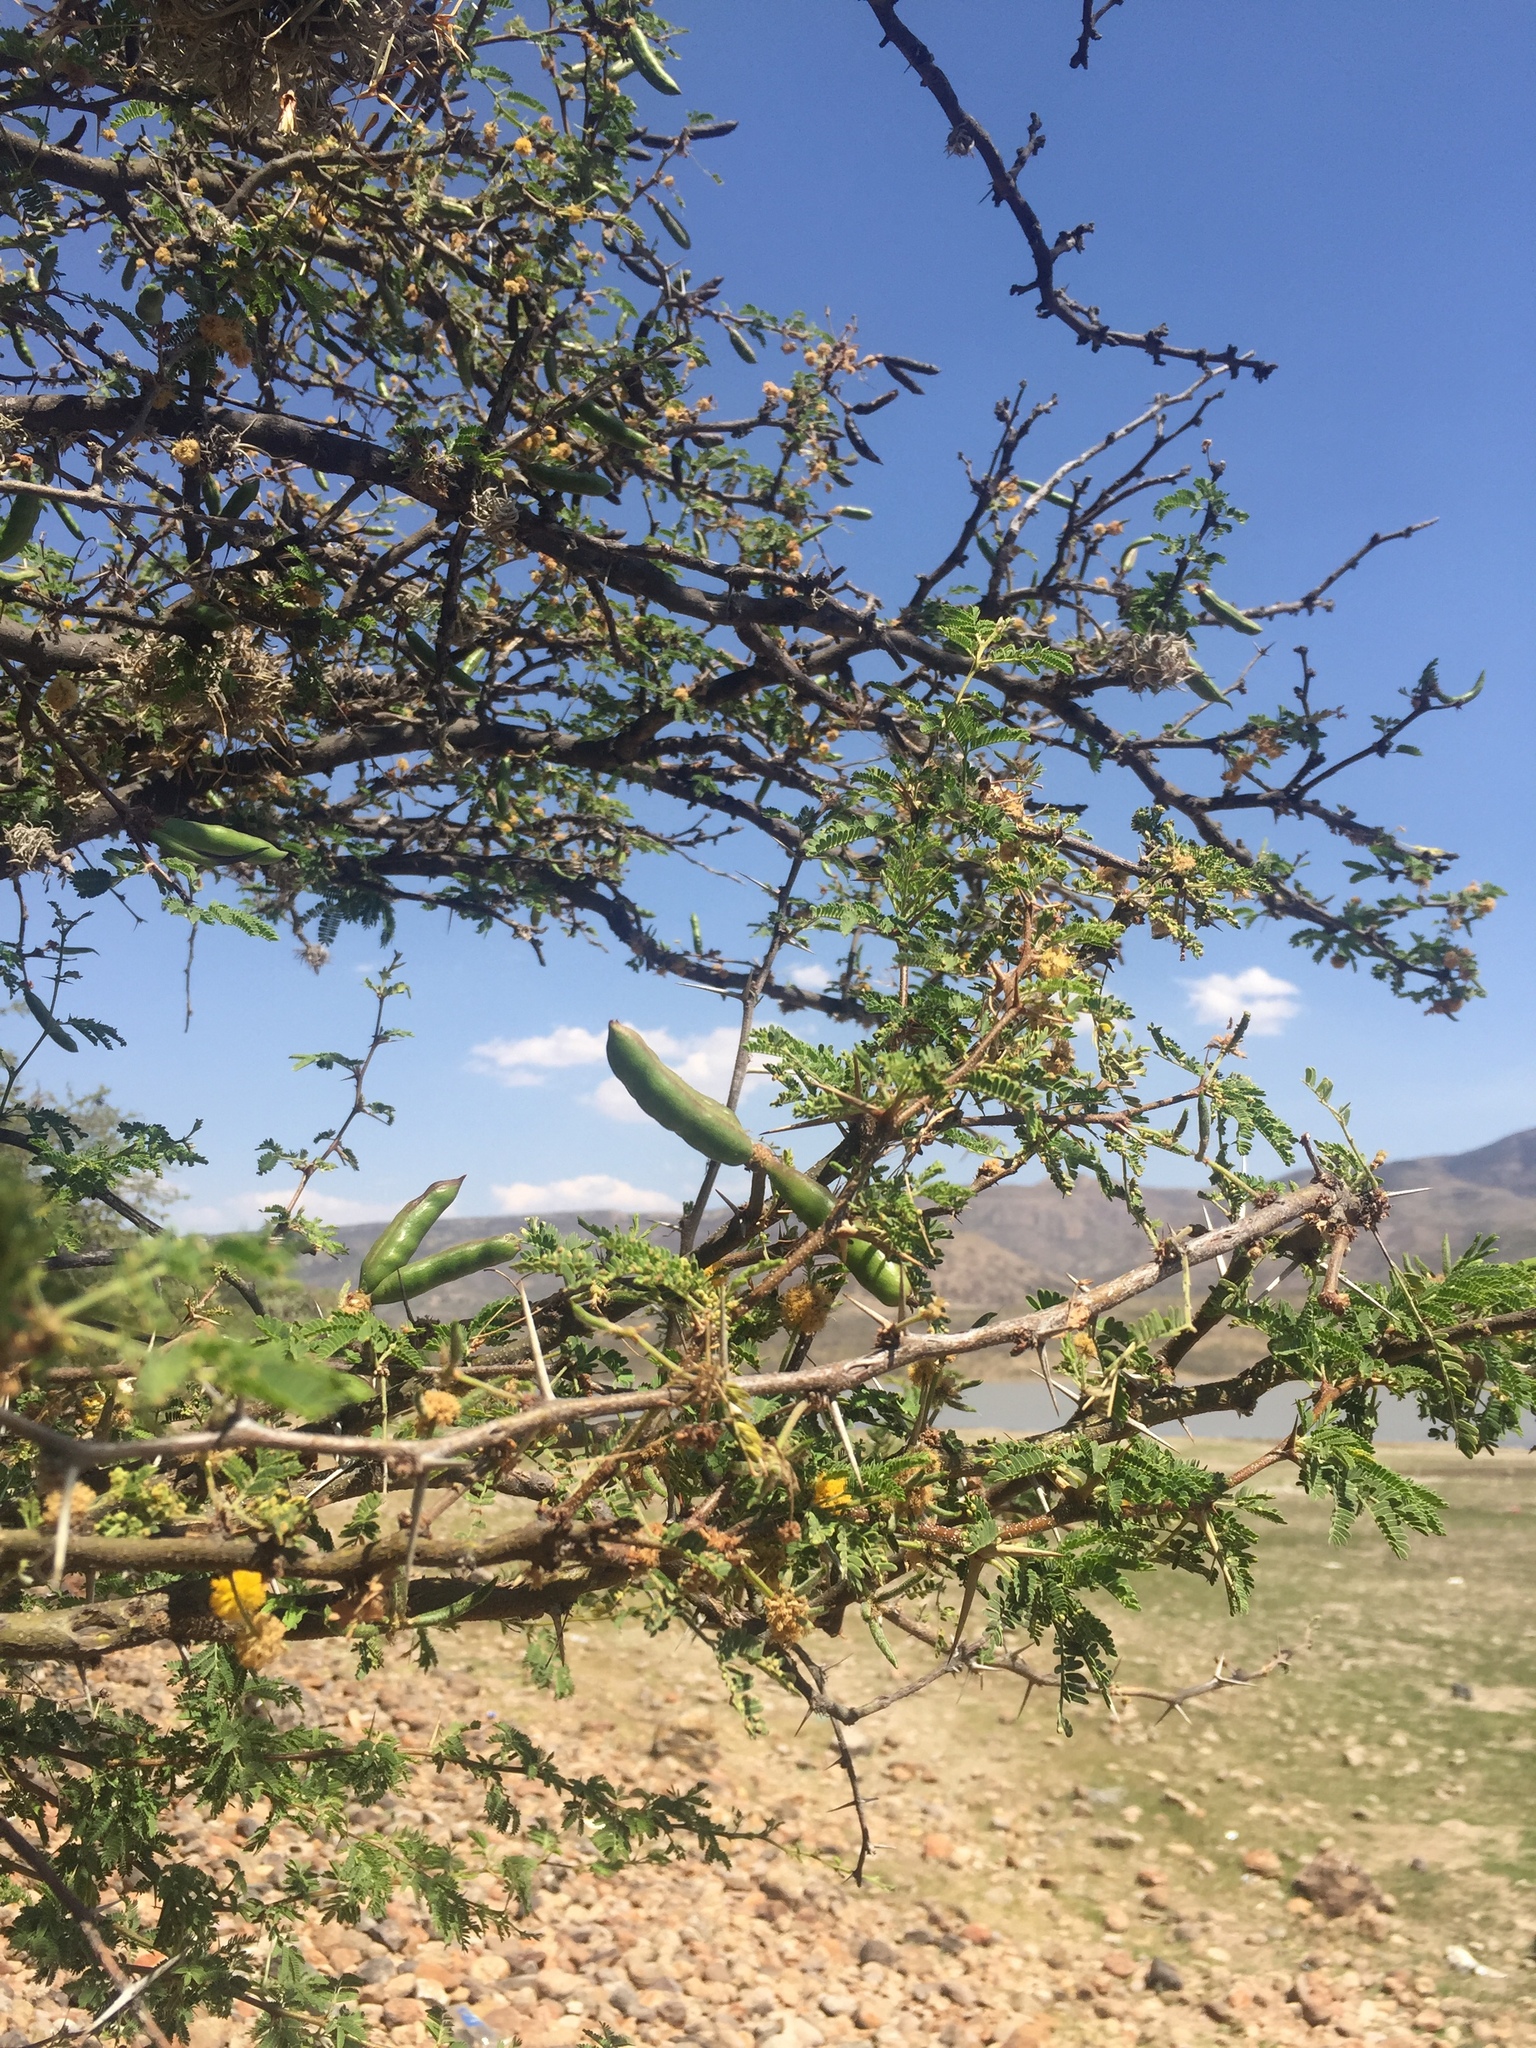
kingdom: Plantae
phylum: Tracheophyta
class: Magnoliopsida
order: Fabales
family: Fabaceae
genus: Vachellia
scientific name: Vachellia farnesiana
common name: Sweet acacia
